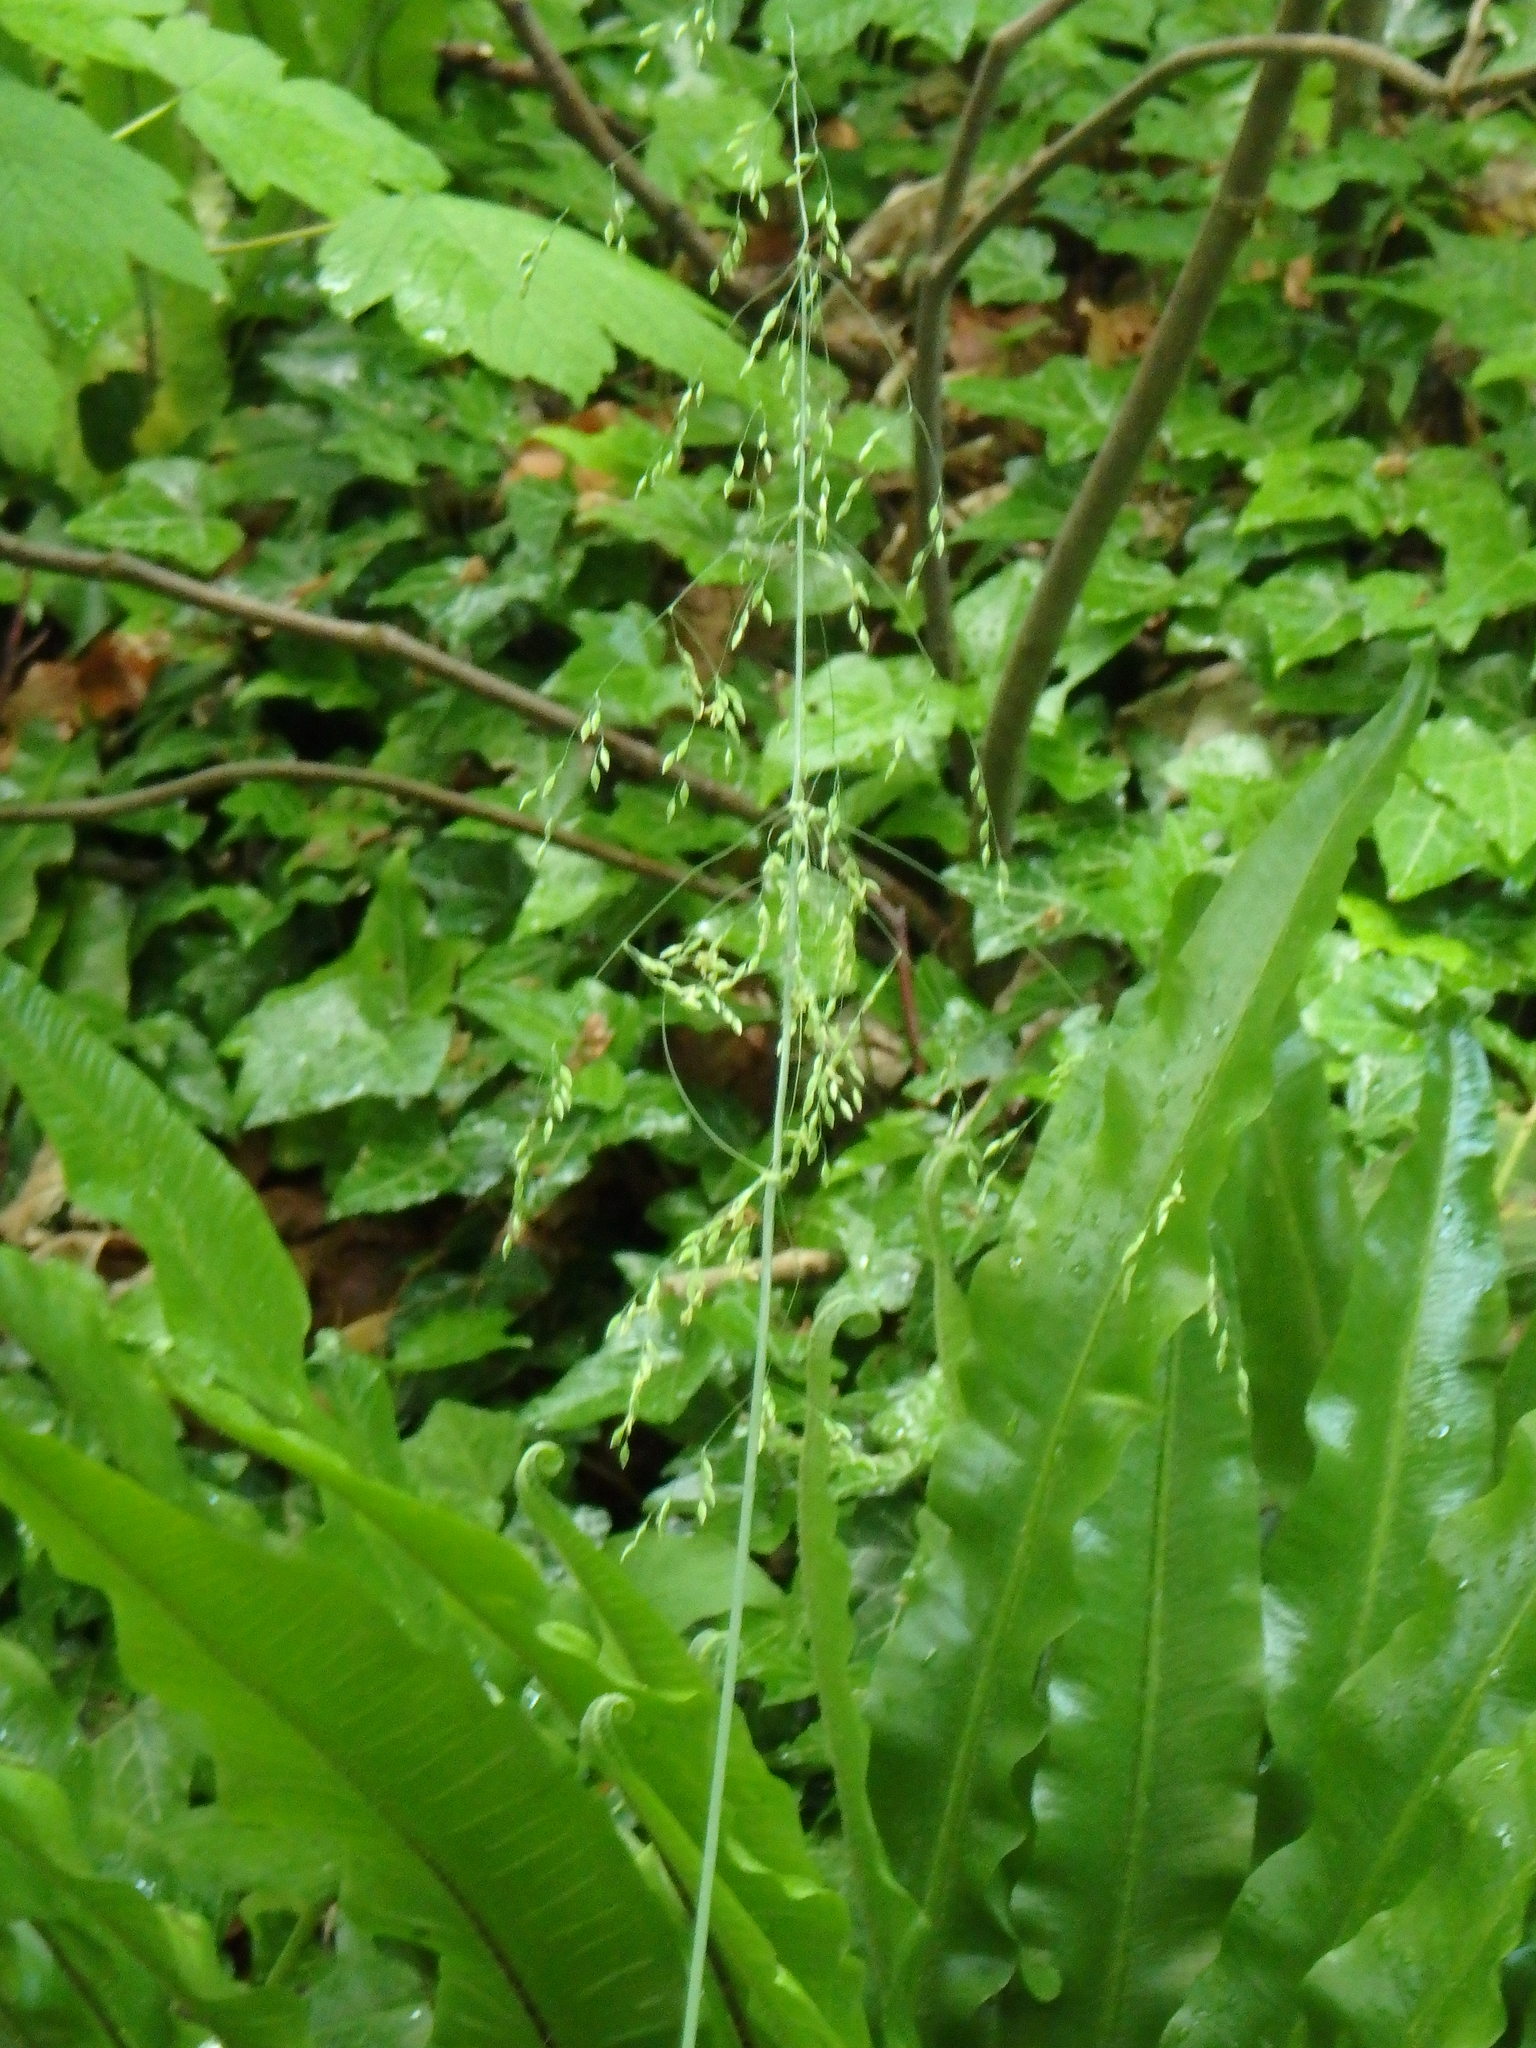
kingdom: Plantae
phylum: Tracheophyta
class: Liliopsida
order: Poales
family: Poaceae
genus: Milium
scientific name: Milium effusum
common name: Wood millet
